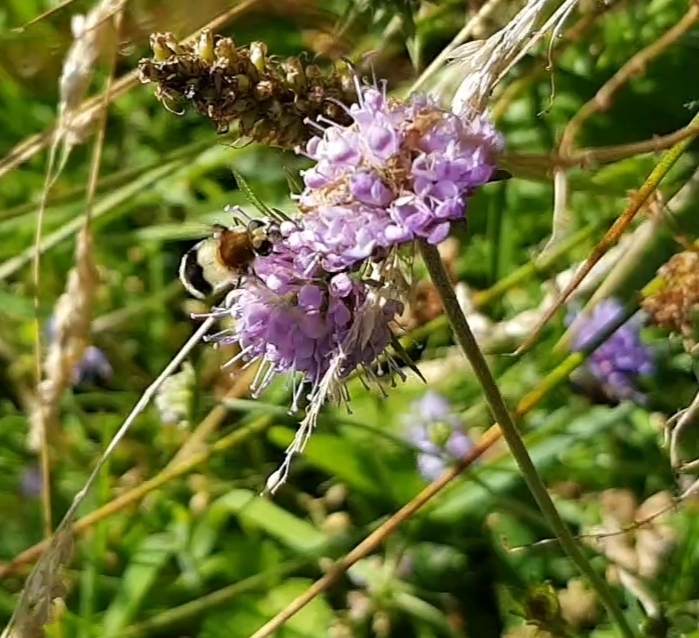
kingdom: Animalia
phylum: Arthropoda
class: Insecta
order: Diptera
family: Syrphidae
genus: Leucozona
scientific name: Leucozona lucorum
